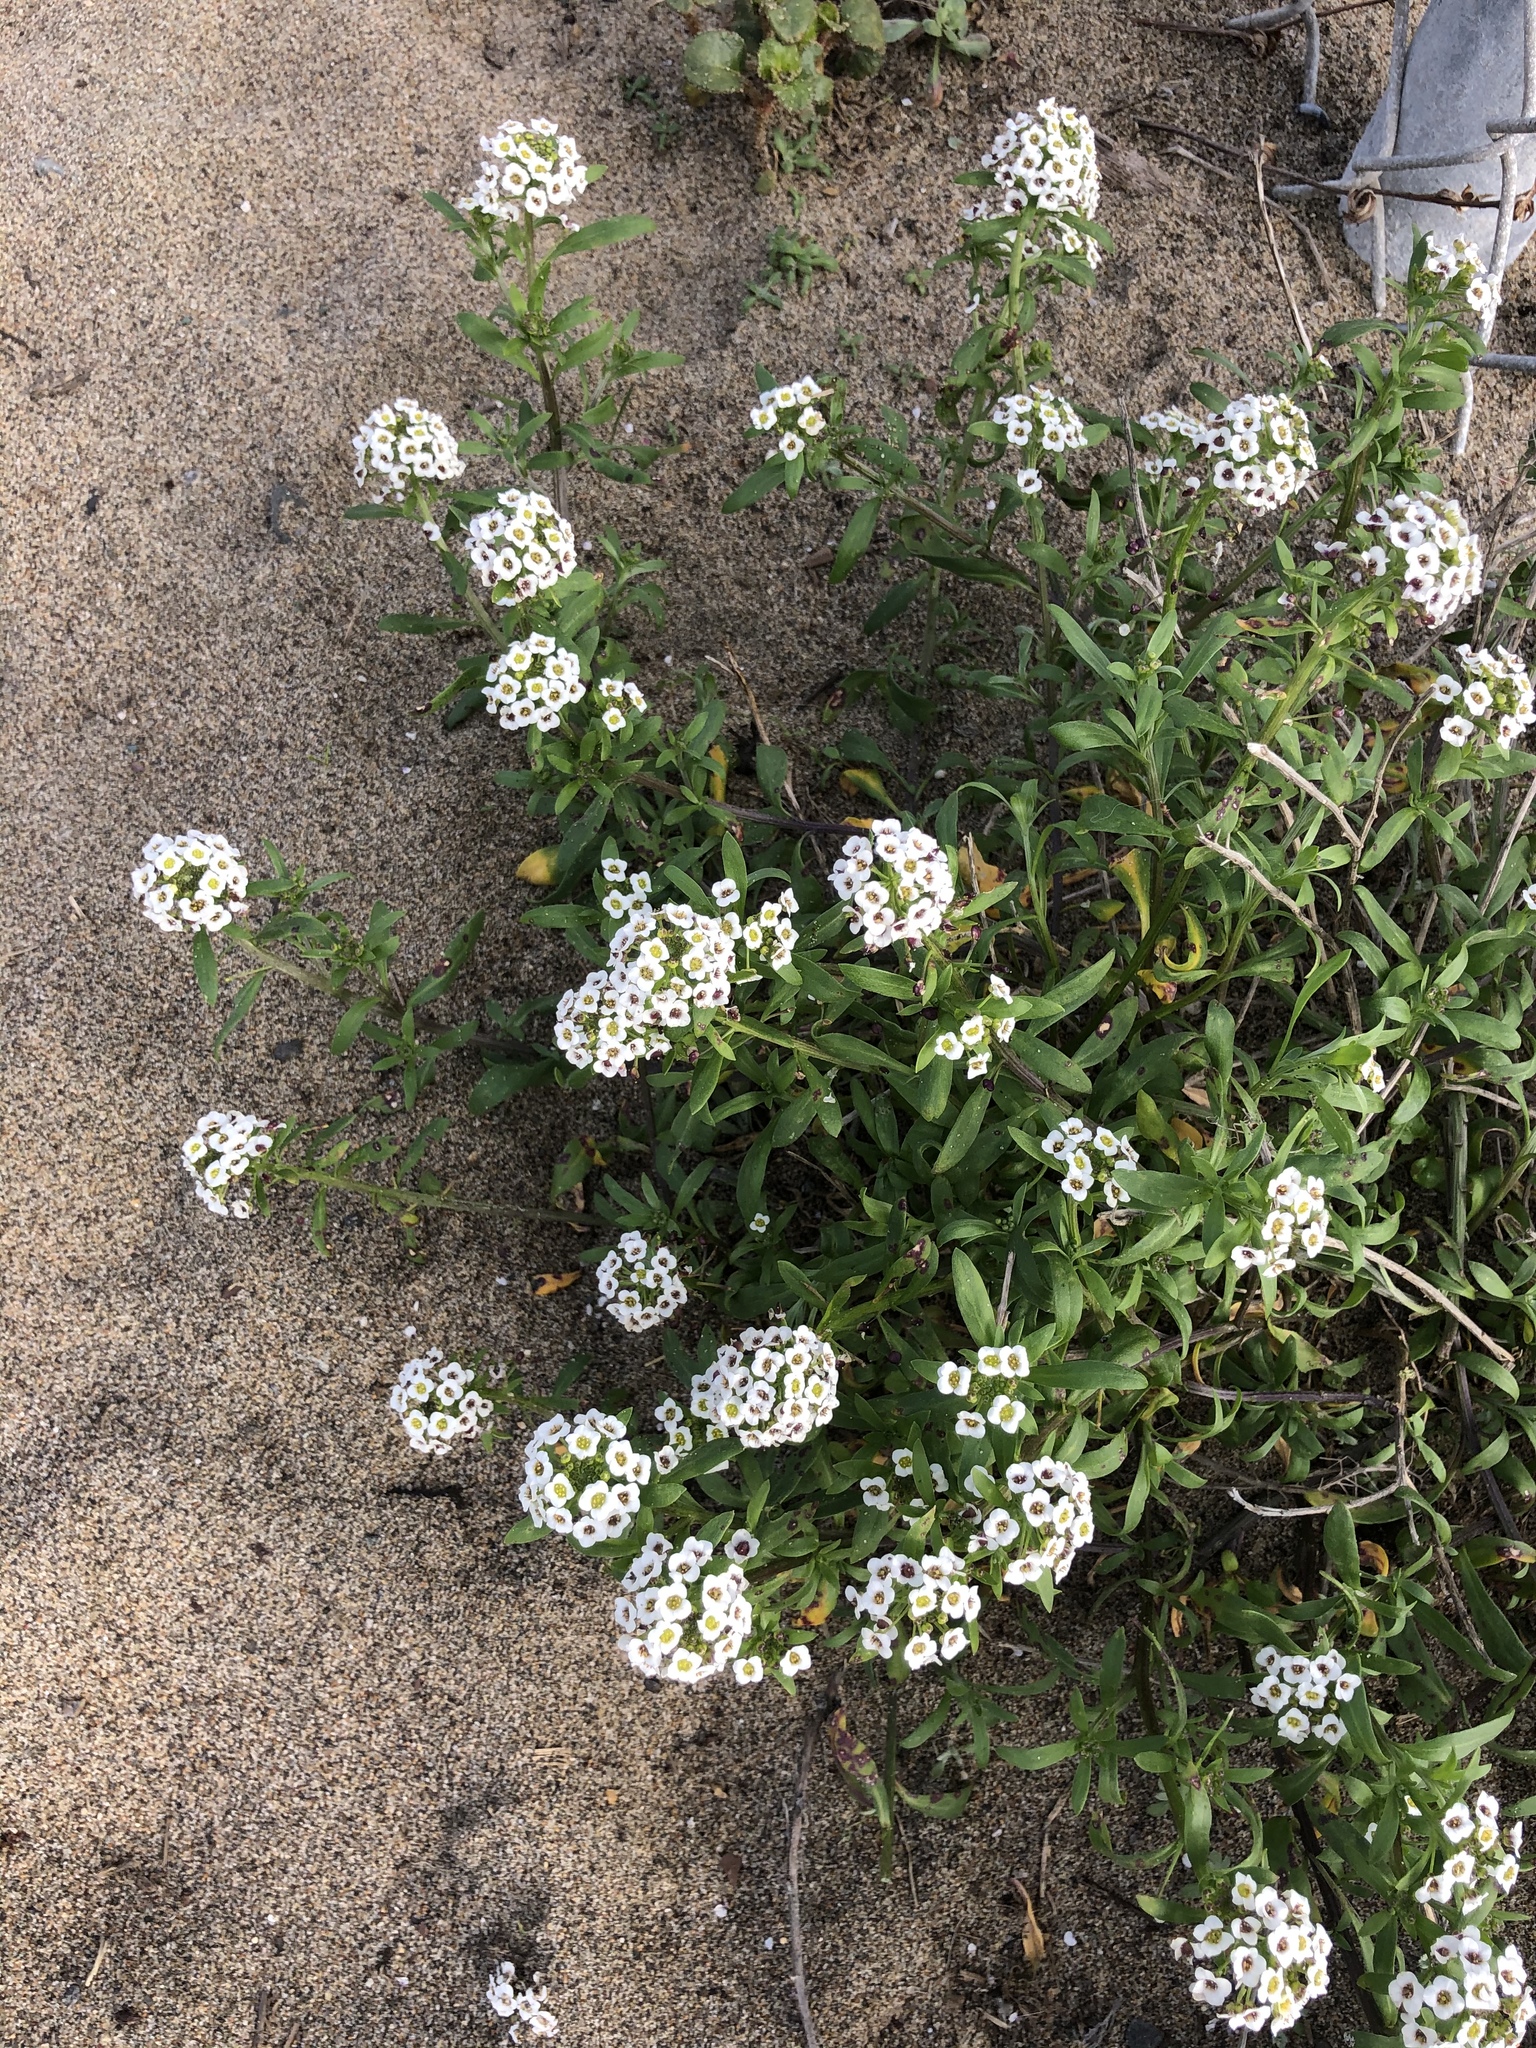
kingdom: Plantae
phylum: Tracheophyta
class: Magnoliopsida
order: Brassicales
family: Brassicaceae
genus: Lobularia
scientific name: Lobularia maritima
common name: Sweet alison
